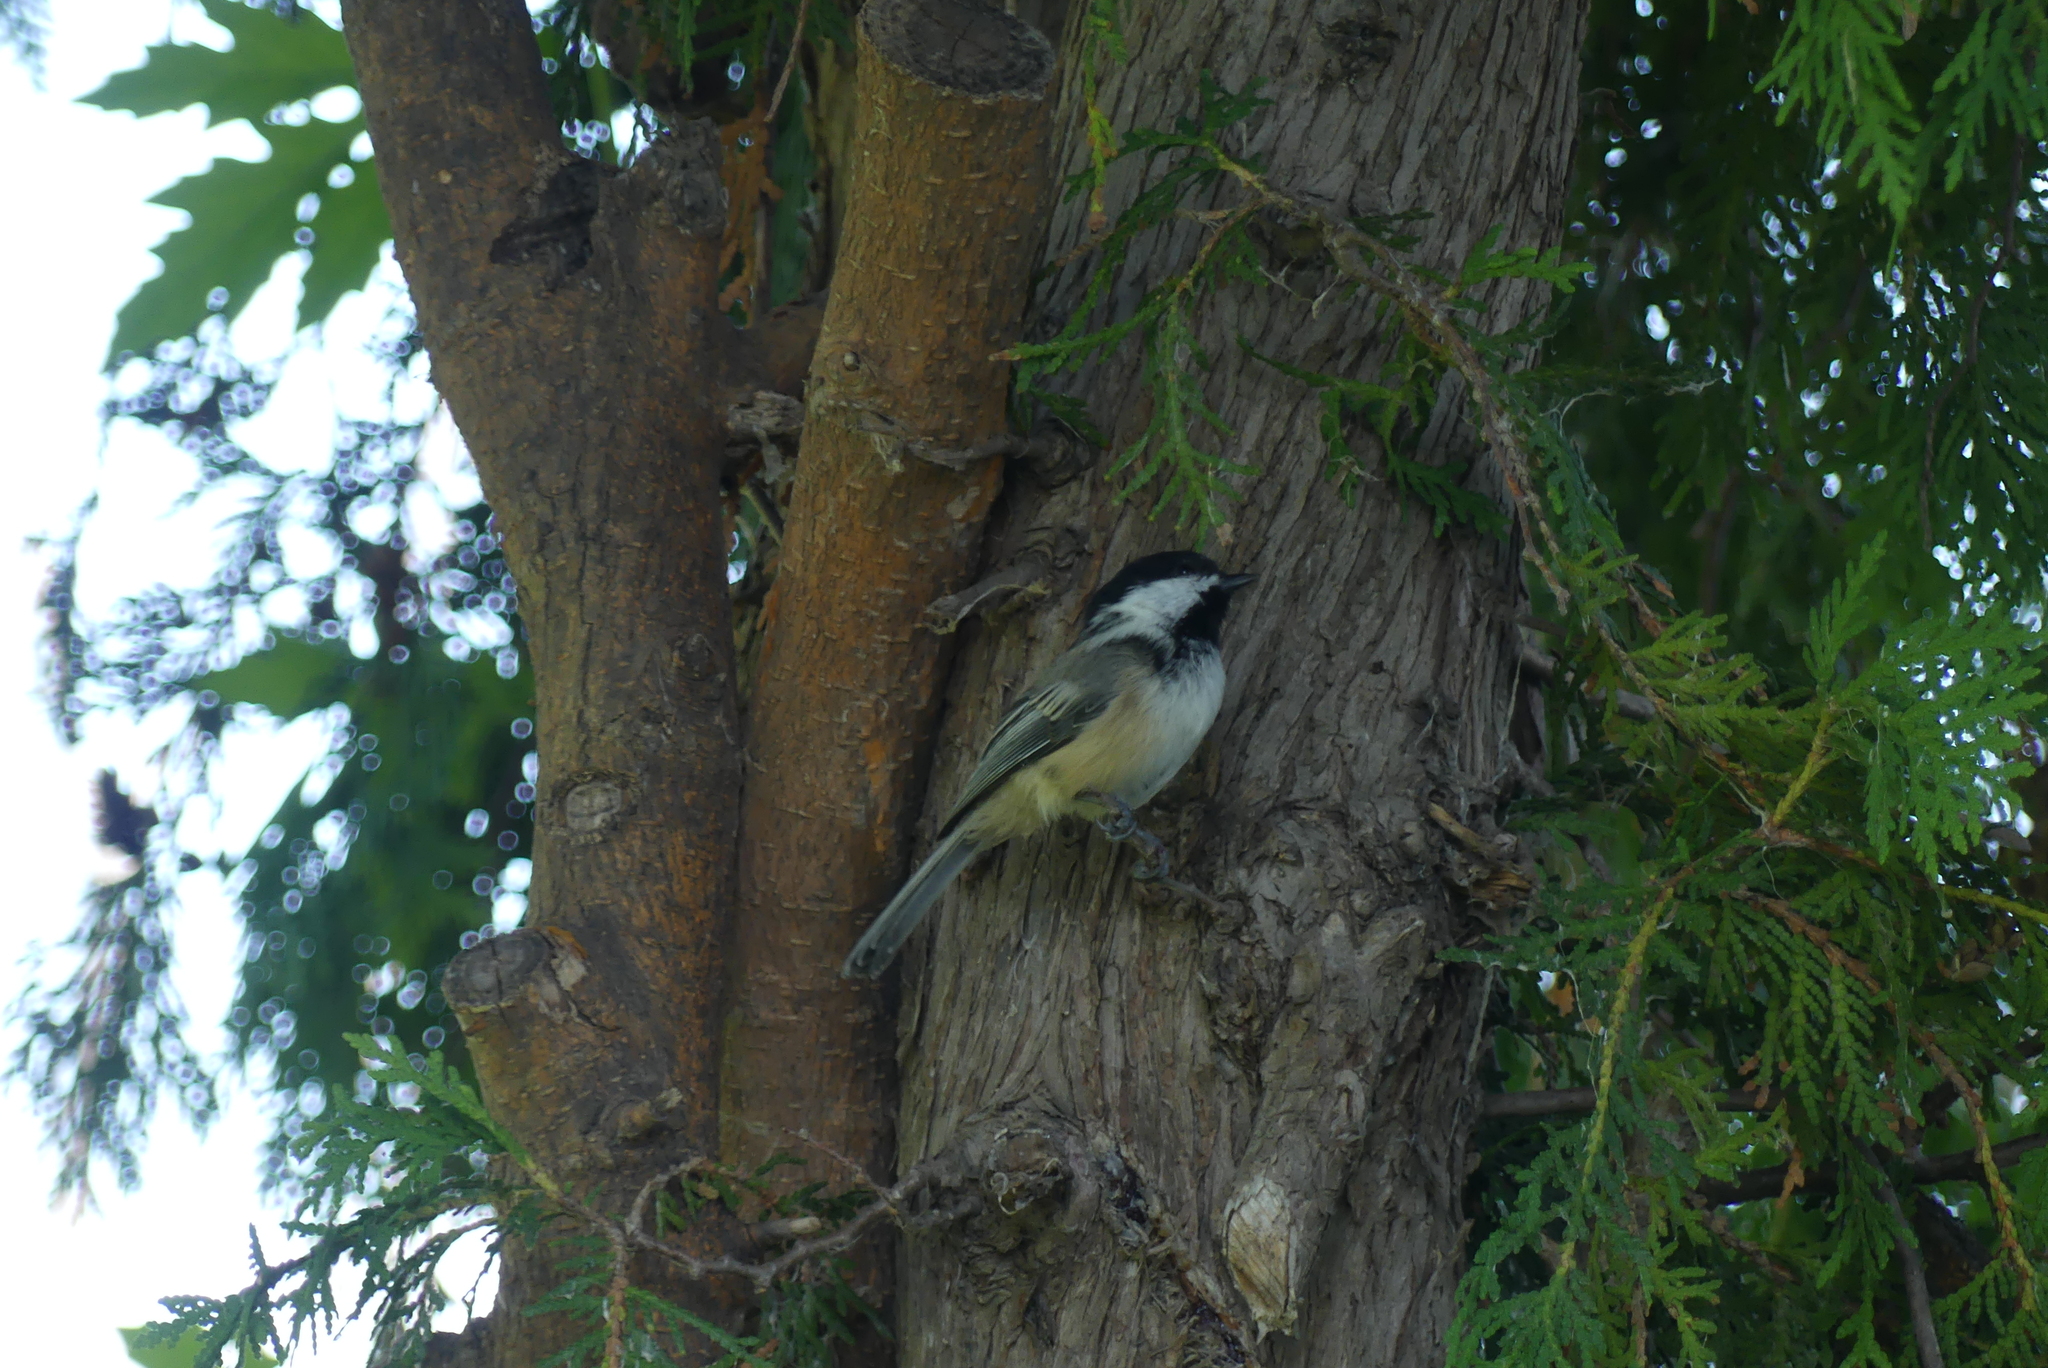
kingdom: Animalia
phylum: Chordata
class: Aves
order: Passeriformes
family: Paridae
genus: Poecile
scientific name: Poecile atricapillus
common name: Black-capped chickadee
